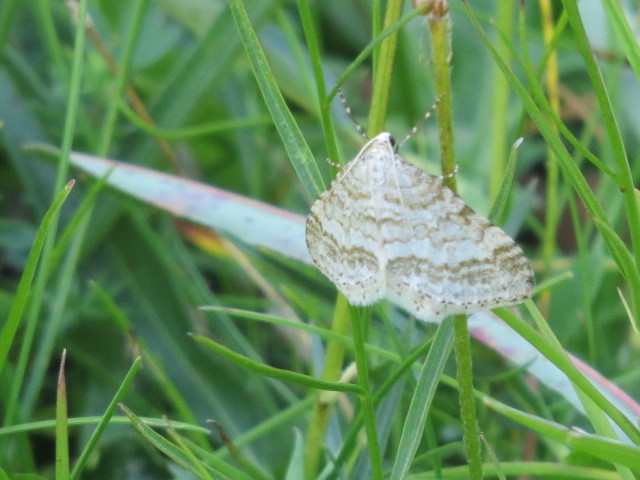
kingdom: Animalia
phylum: Arthropoda
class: Insecta
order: Lepidoptera
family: Geometridae
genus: Perizoma
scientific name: Perizoma verberata
